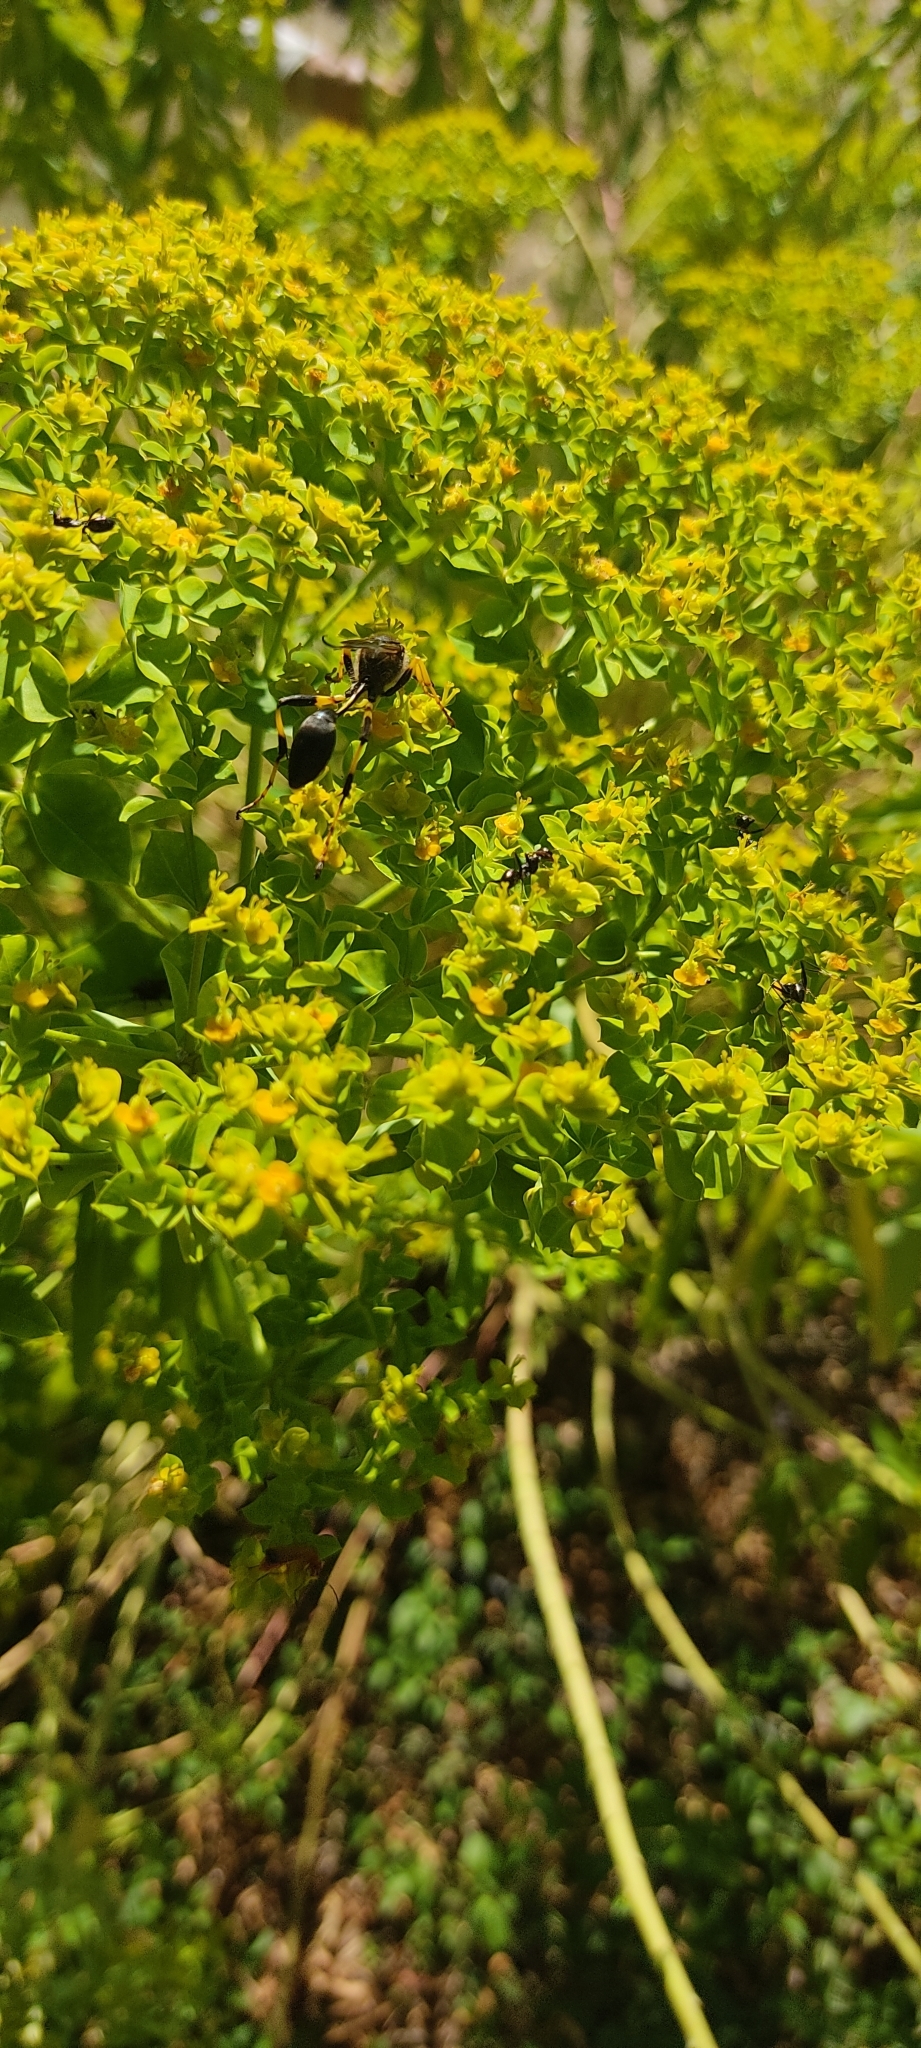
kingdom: Animalia
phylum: Arthropoda
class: Insecta
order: Hymenoptera
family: Sphecidae
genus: Sceliphron
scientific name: Sceliphron destillatorium
